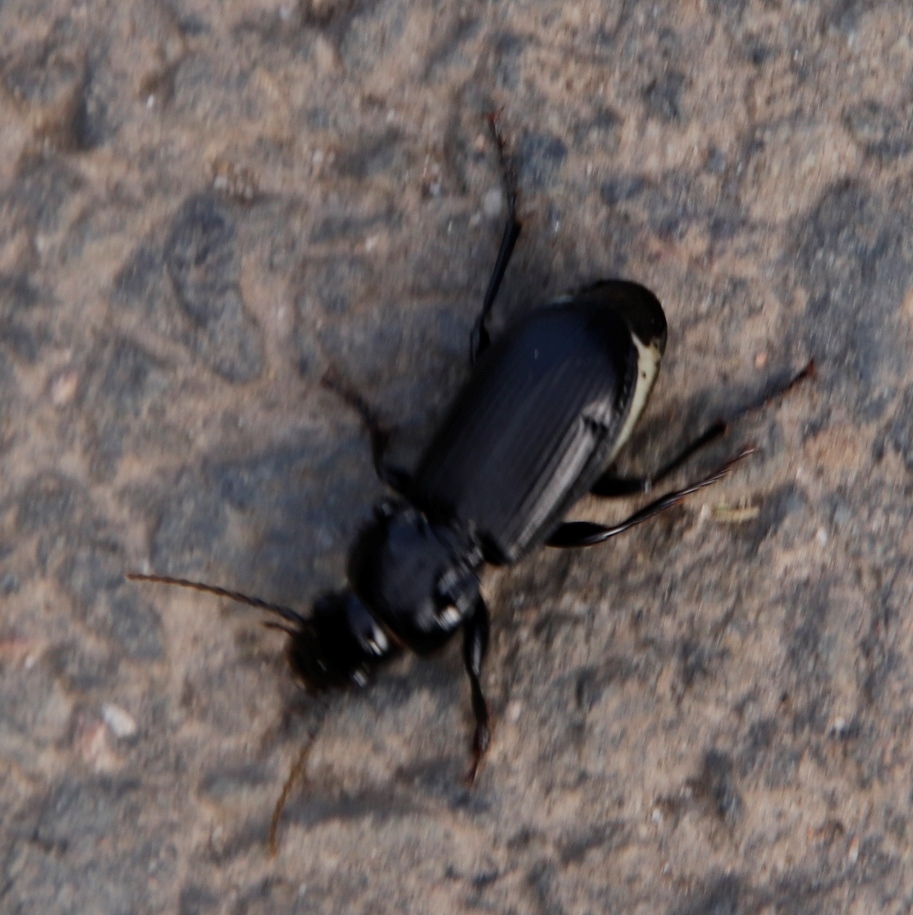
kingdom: Animalia
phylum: Arthropoda
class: Insecta
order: Coleoptera
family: Carabidae
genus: Pterostichus
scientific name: Pterostichus melanarius
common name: European dark harp ground beetle
